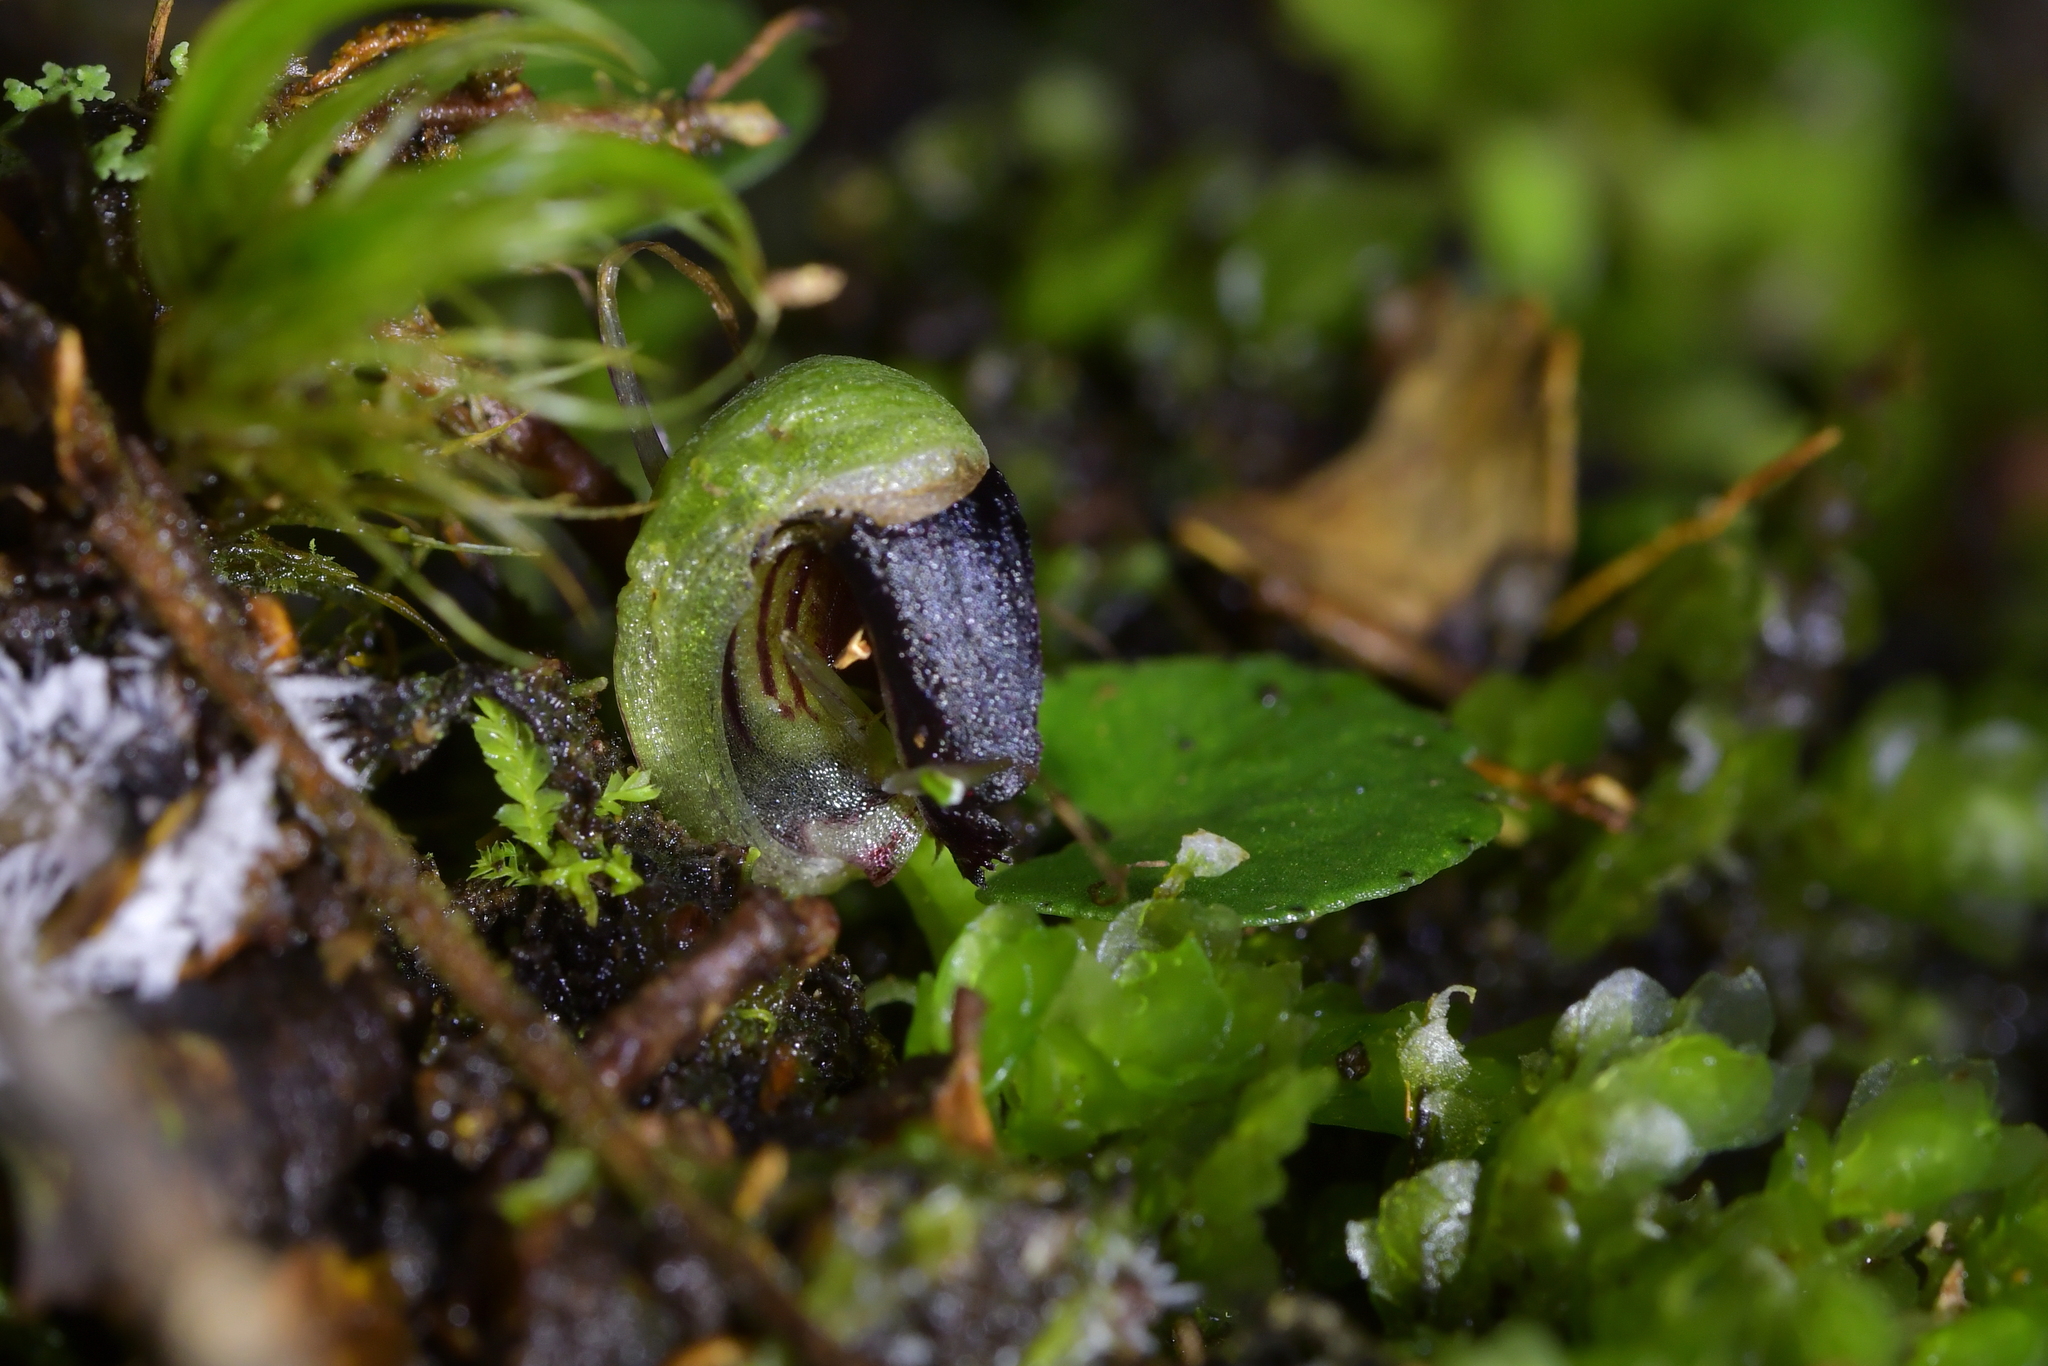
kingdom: Plantae
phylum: Tracheophyta
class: Liliopsida
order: Asparagales
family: Orchidaceae
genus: Corybas
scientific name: Corybas trilobus
